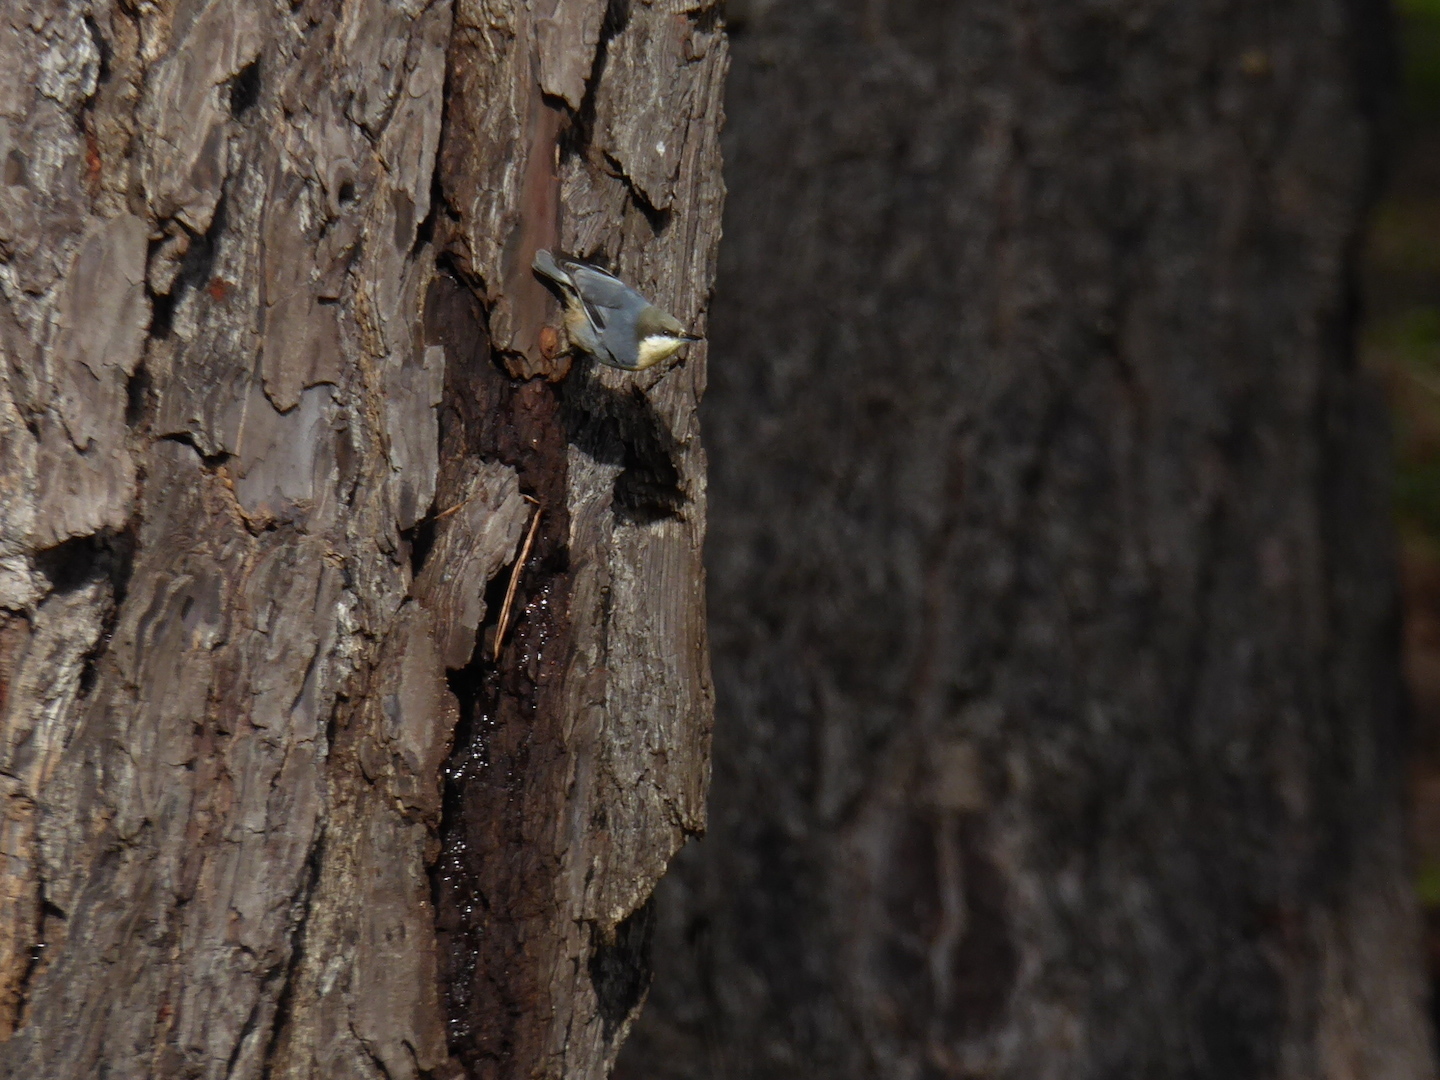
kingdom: Animalia
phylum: Chordata
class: Aves
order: Passeriformes
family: Sittidae
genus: Sitta
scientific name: Sitta pygmaea
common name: Pygmy nuthatch
